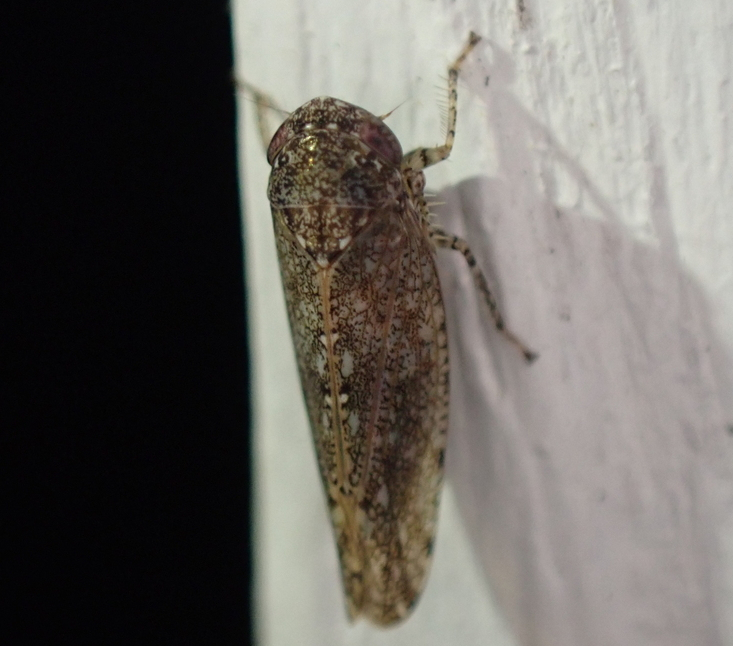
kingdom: Animalia
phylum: Arthropoda
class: Insecta
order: Hemiptera
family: Cicadellidae
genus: Paraphlepsius
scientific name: Paraphlepsius irroratus
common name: Brown speckled leafhopper
